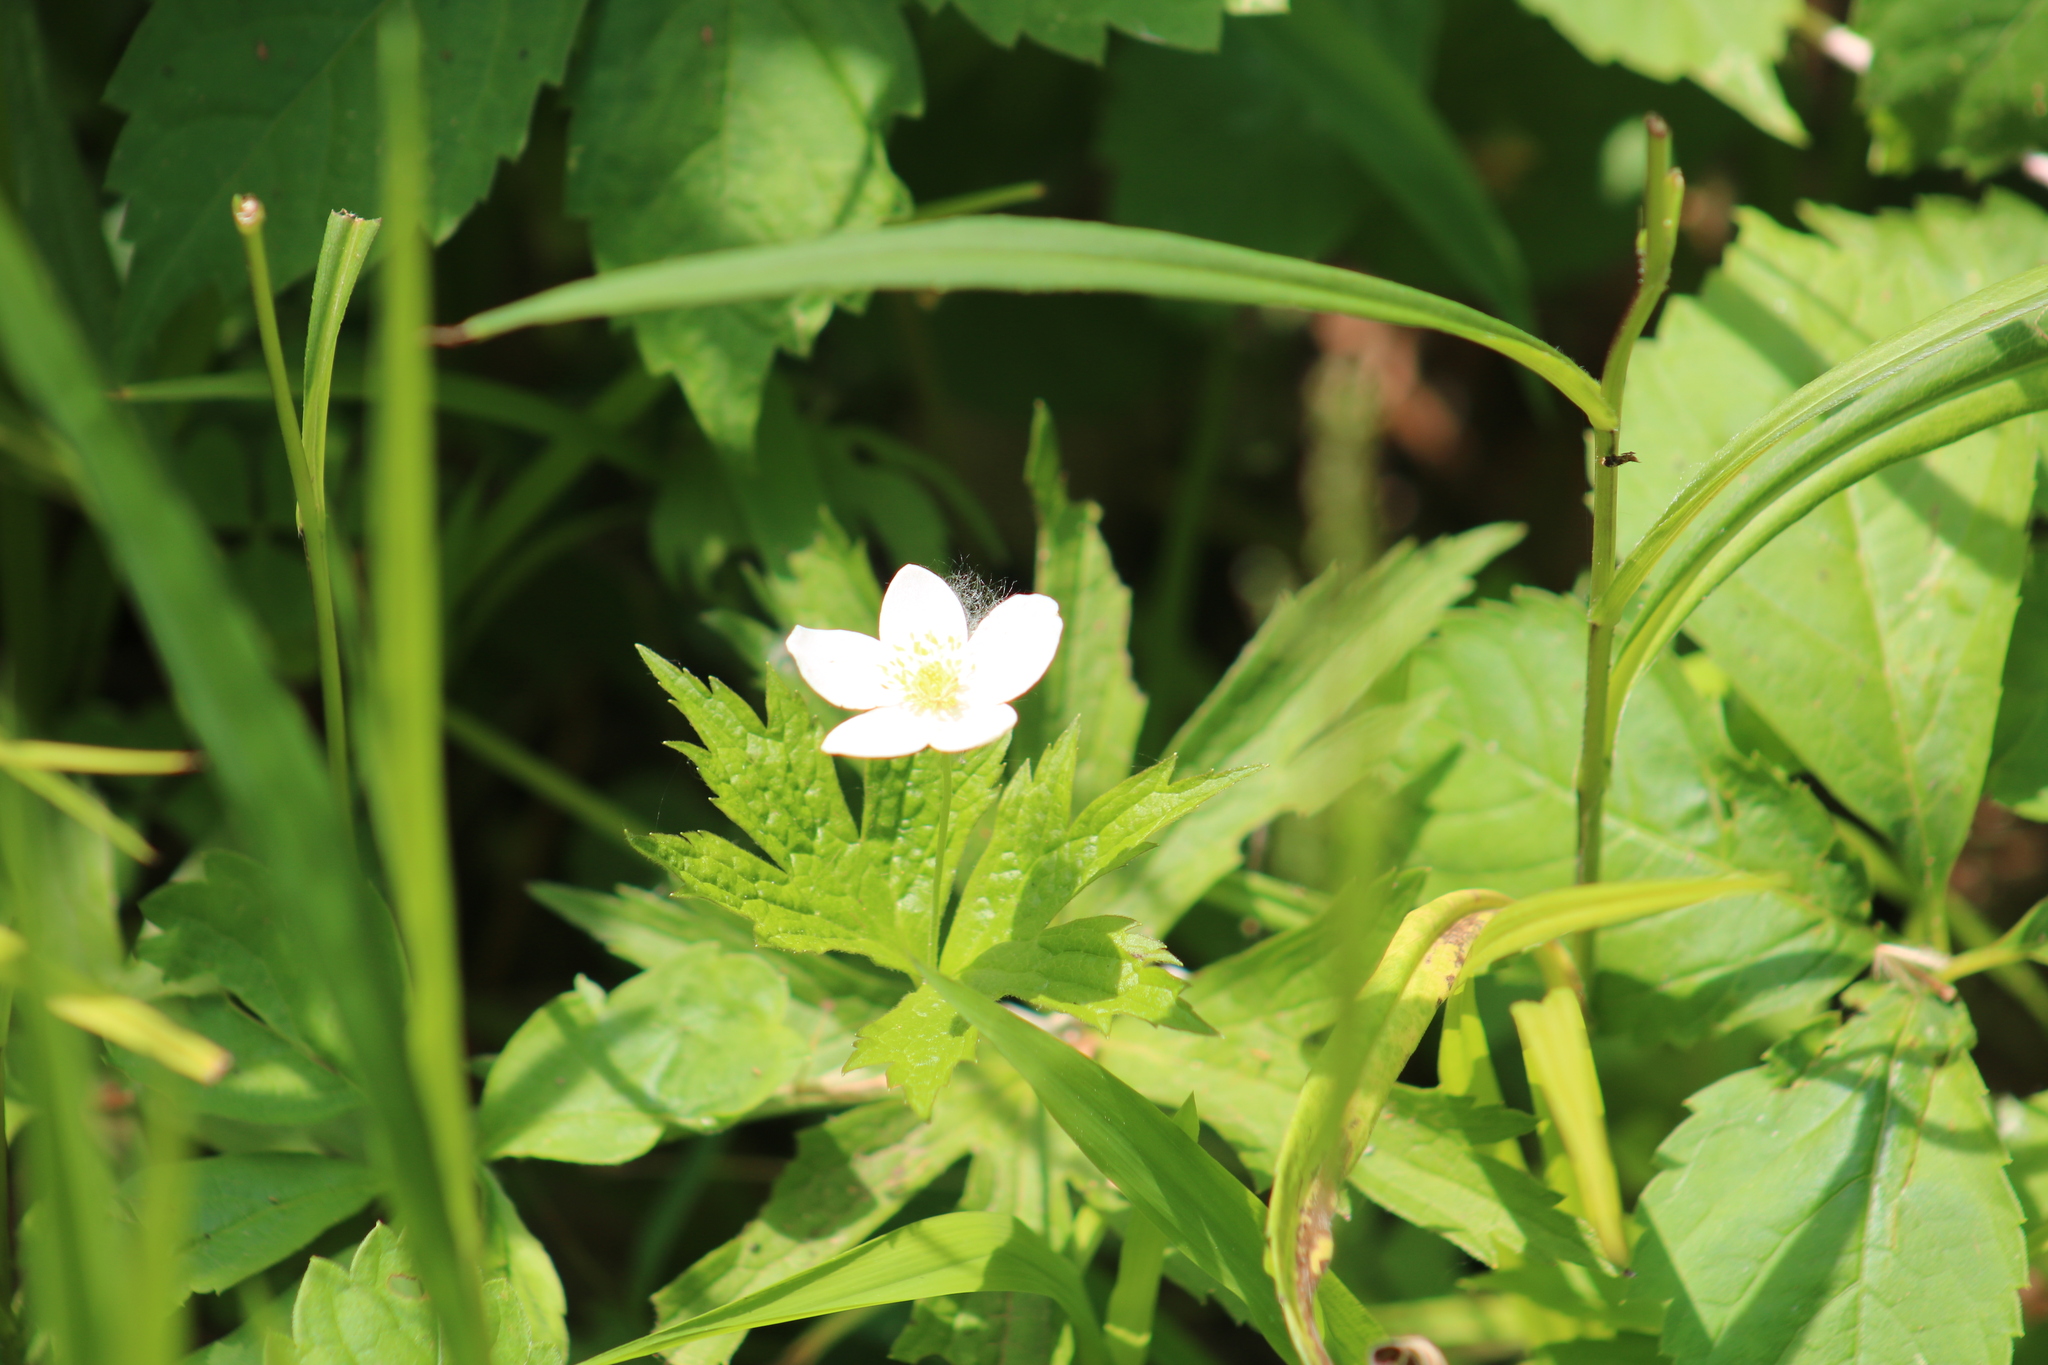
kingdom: Plantae
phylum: Tracheophyta
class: Magnoliopsida
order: Ranunculales
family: Ranunculaceae
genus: Anemonastrum
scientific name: Anemonastrum canadense
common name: Canada anemone
